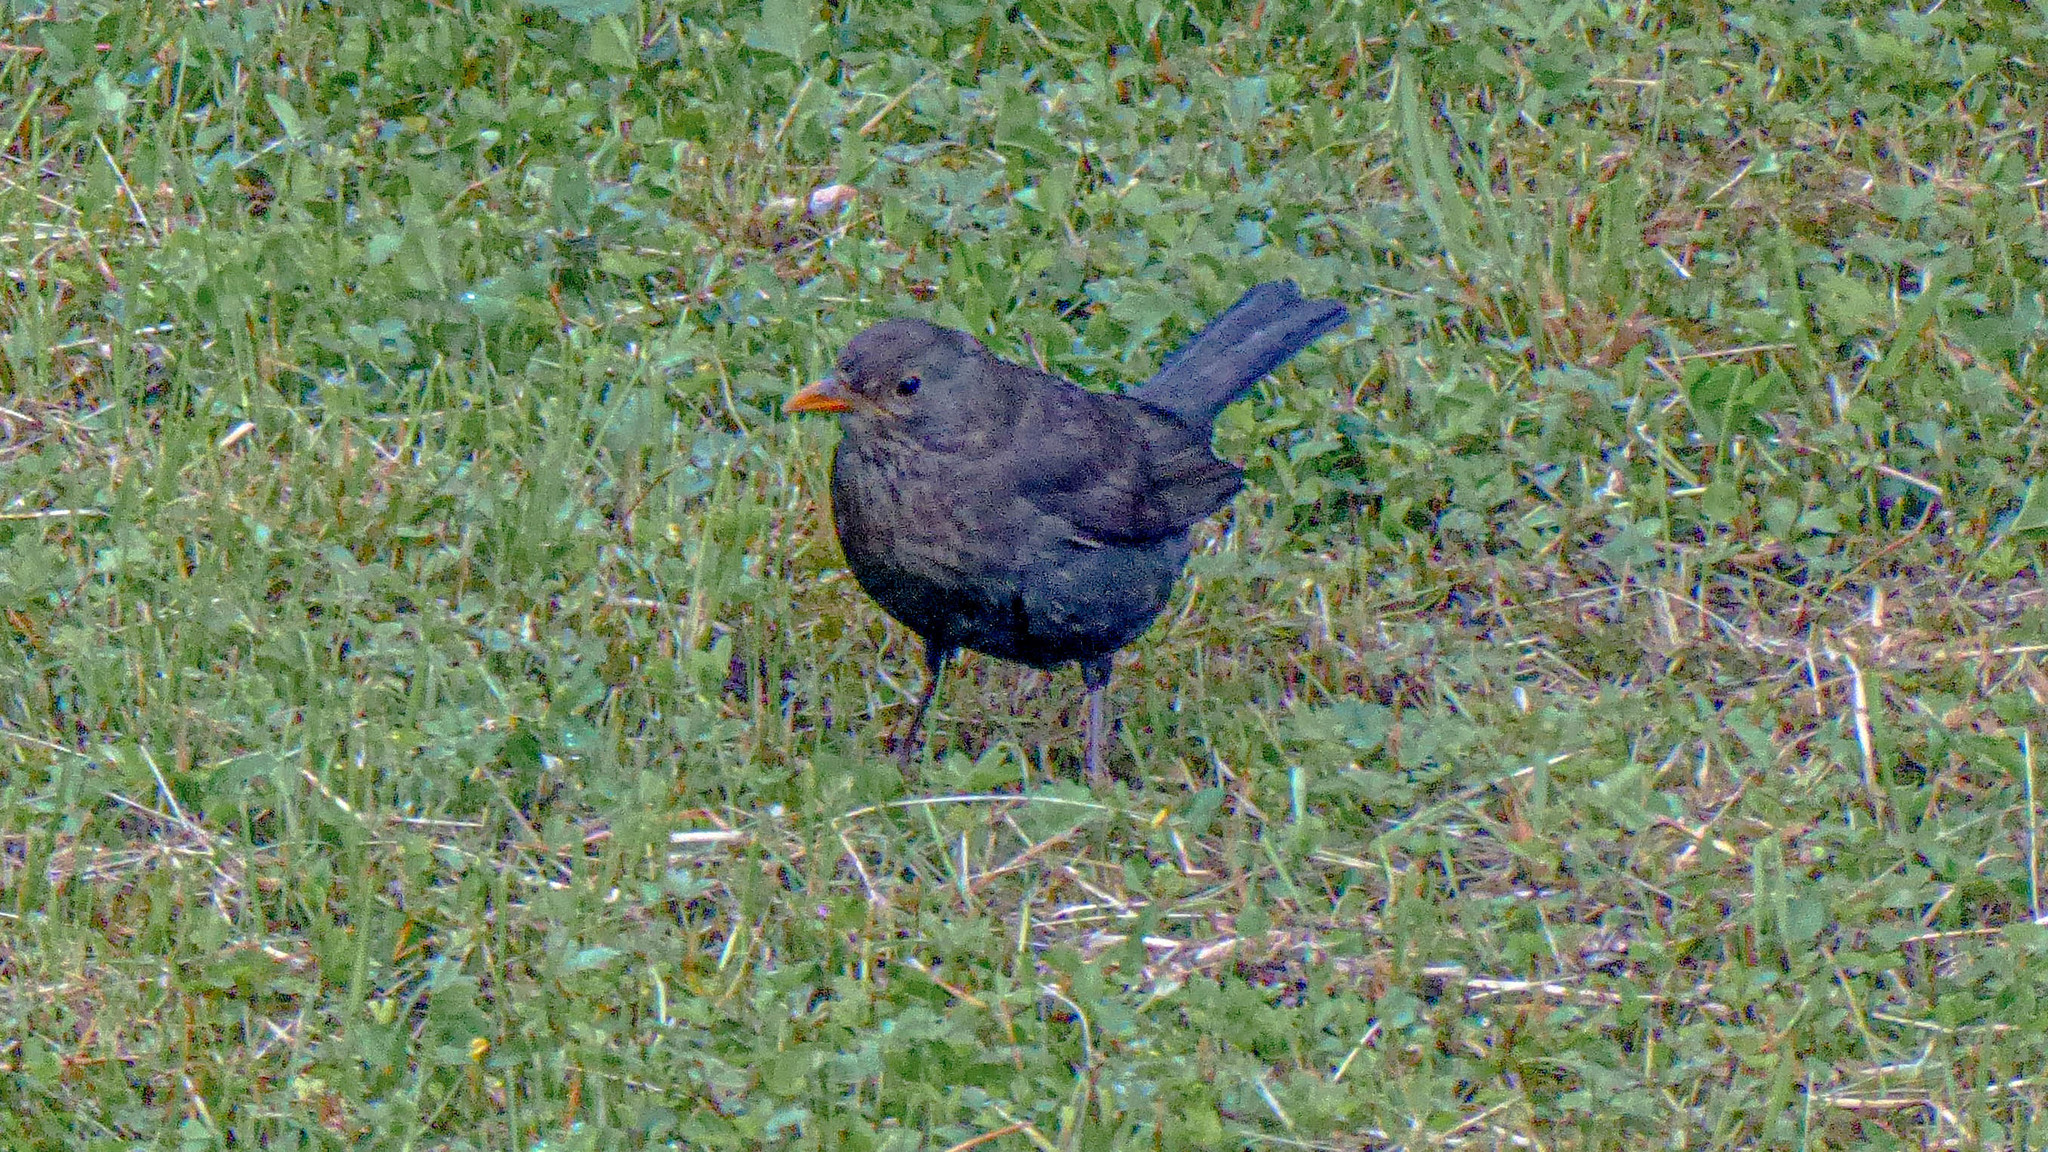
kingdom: Animalia
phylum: Chordata
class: Aves
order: Passeriformes
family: Turdidae
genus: Turdus
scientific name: Turdus merula
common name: Common blackbird
